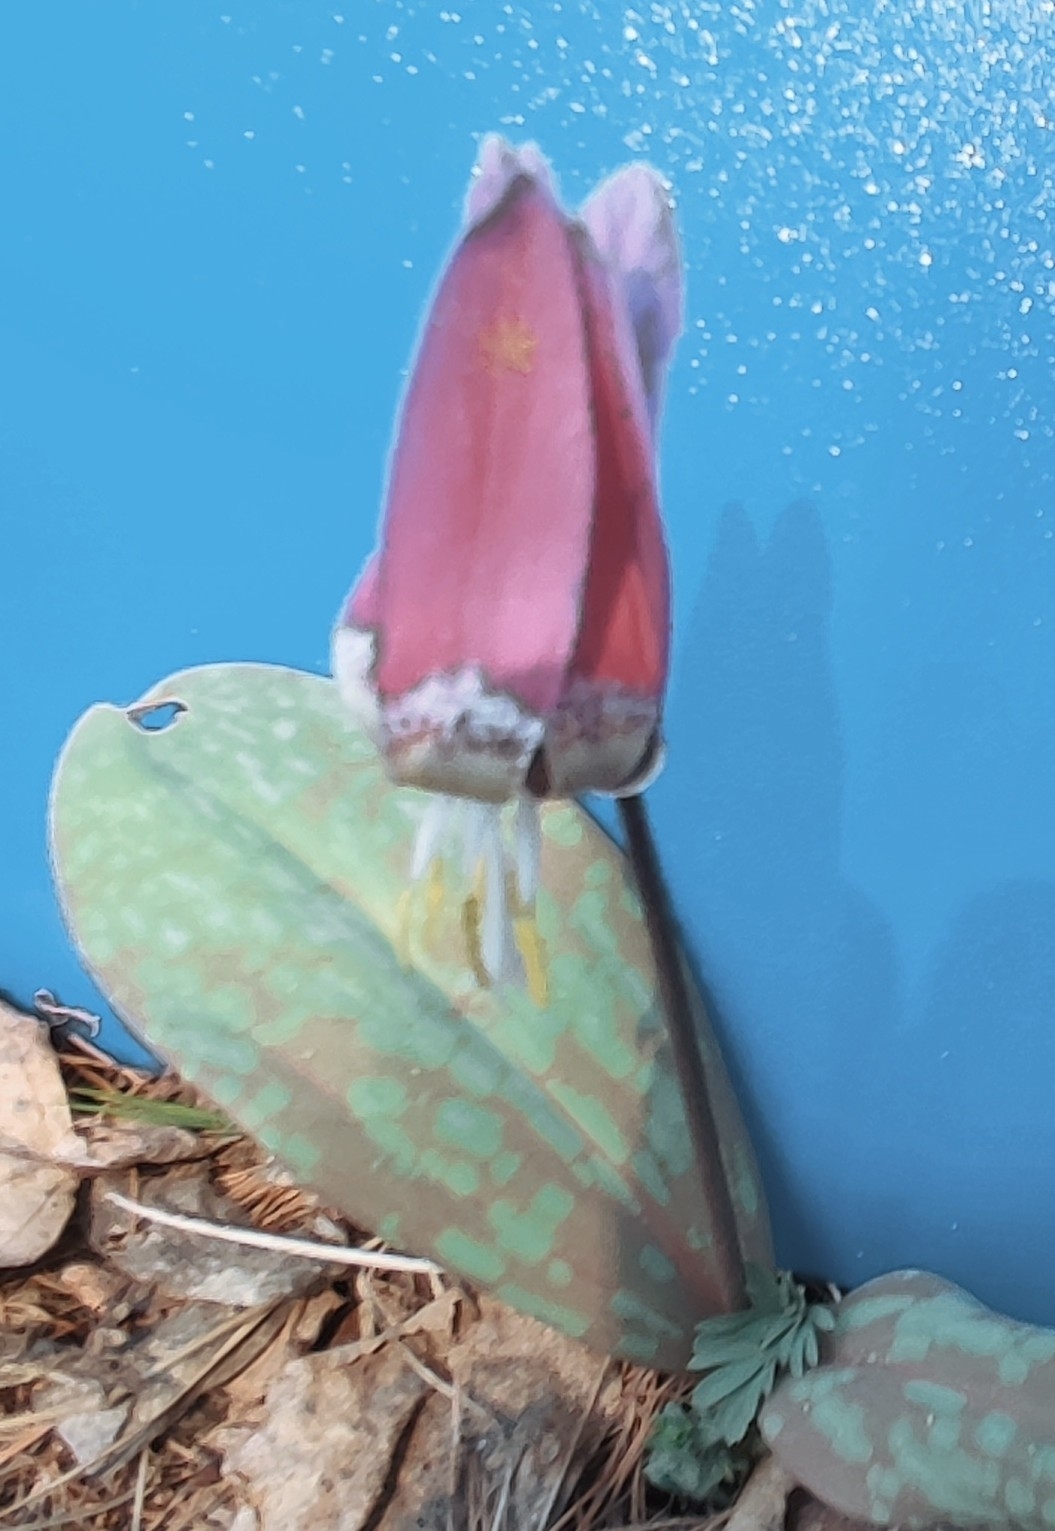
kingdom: Plantae
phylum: Tracheophyta
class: Liliopsida
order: Liliales
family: Liliaceae
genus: Erythronium
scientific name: Erythronium sibiricum
